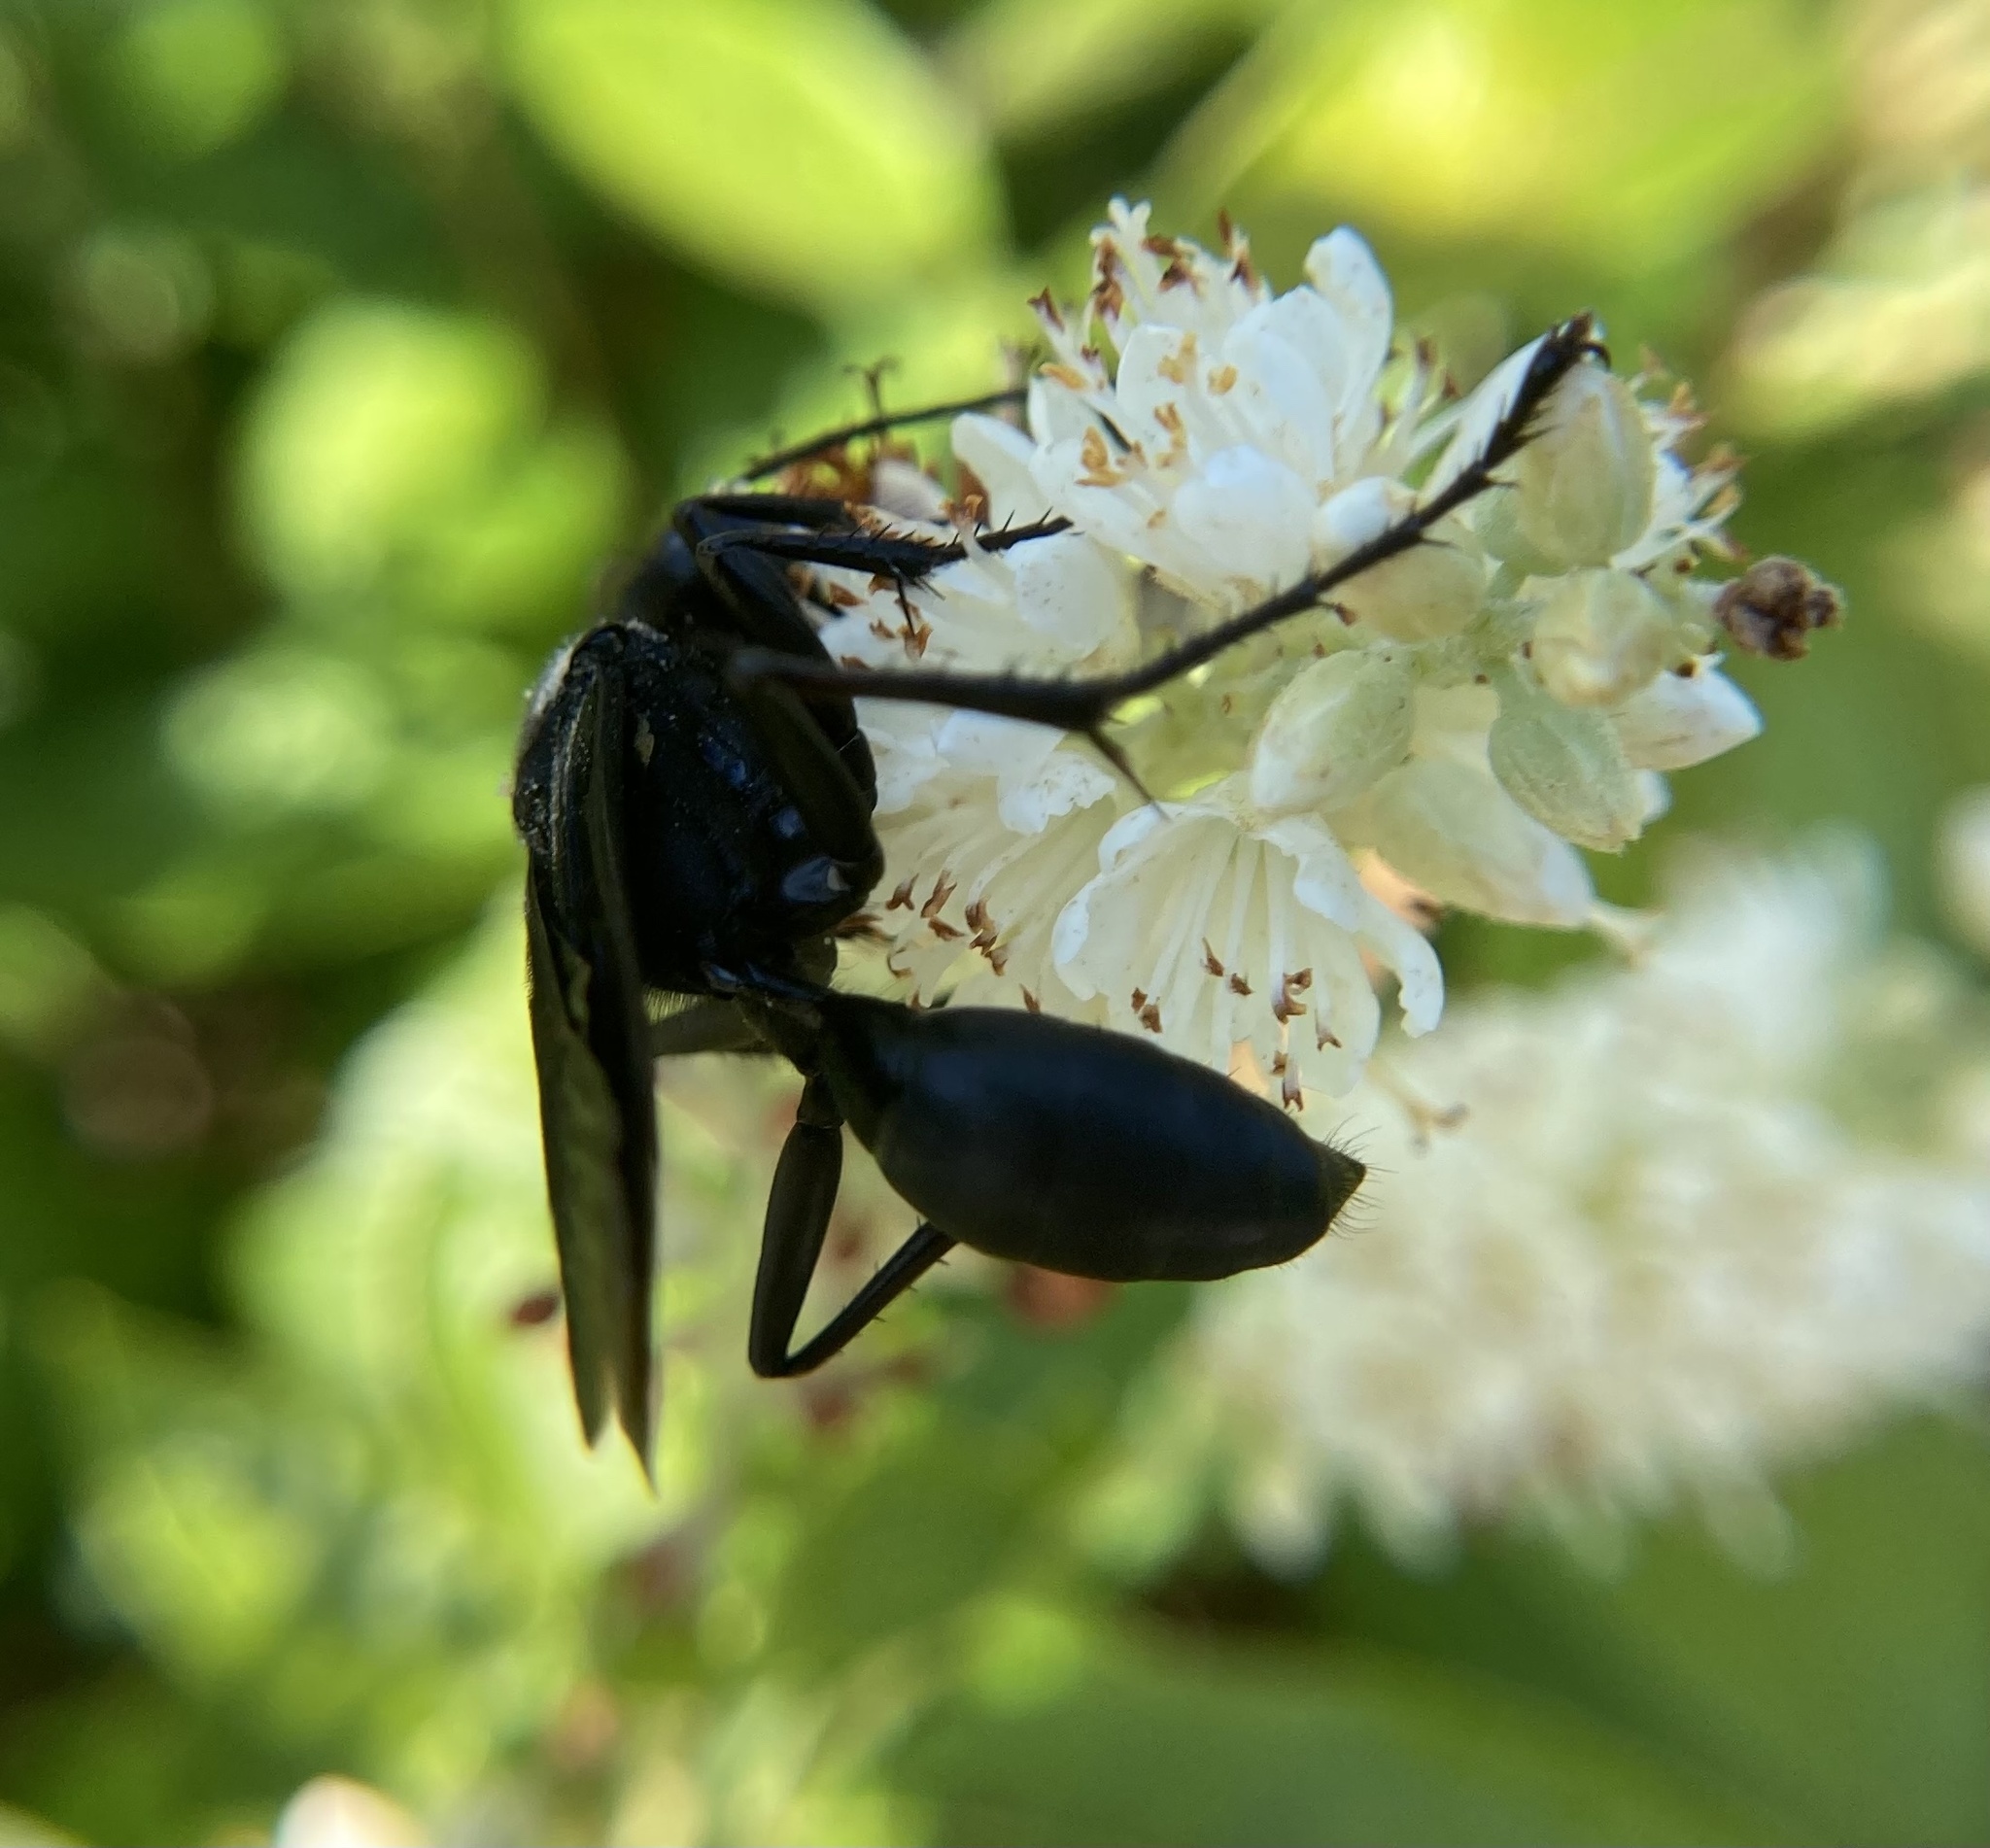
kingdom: Animalia
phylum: Arthropoda
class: Insecta
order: Hymenoptera
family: Sphecidae
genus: Sphex
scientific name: Sphex pensylvanicus
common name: Great black digger wasp
